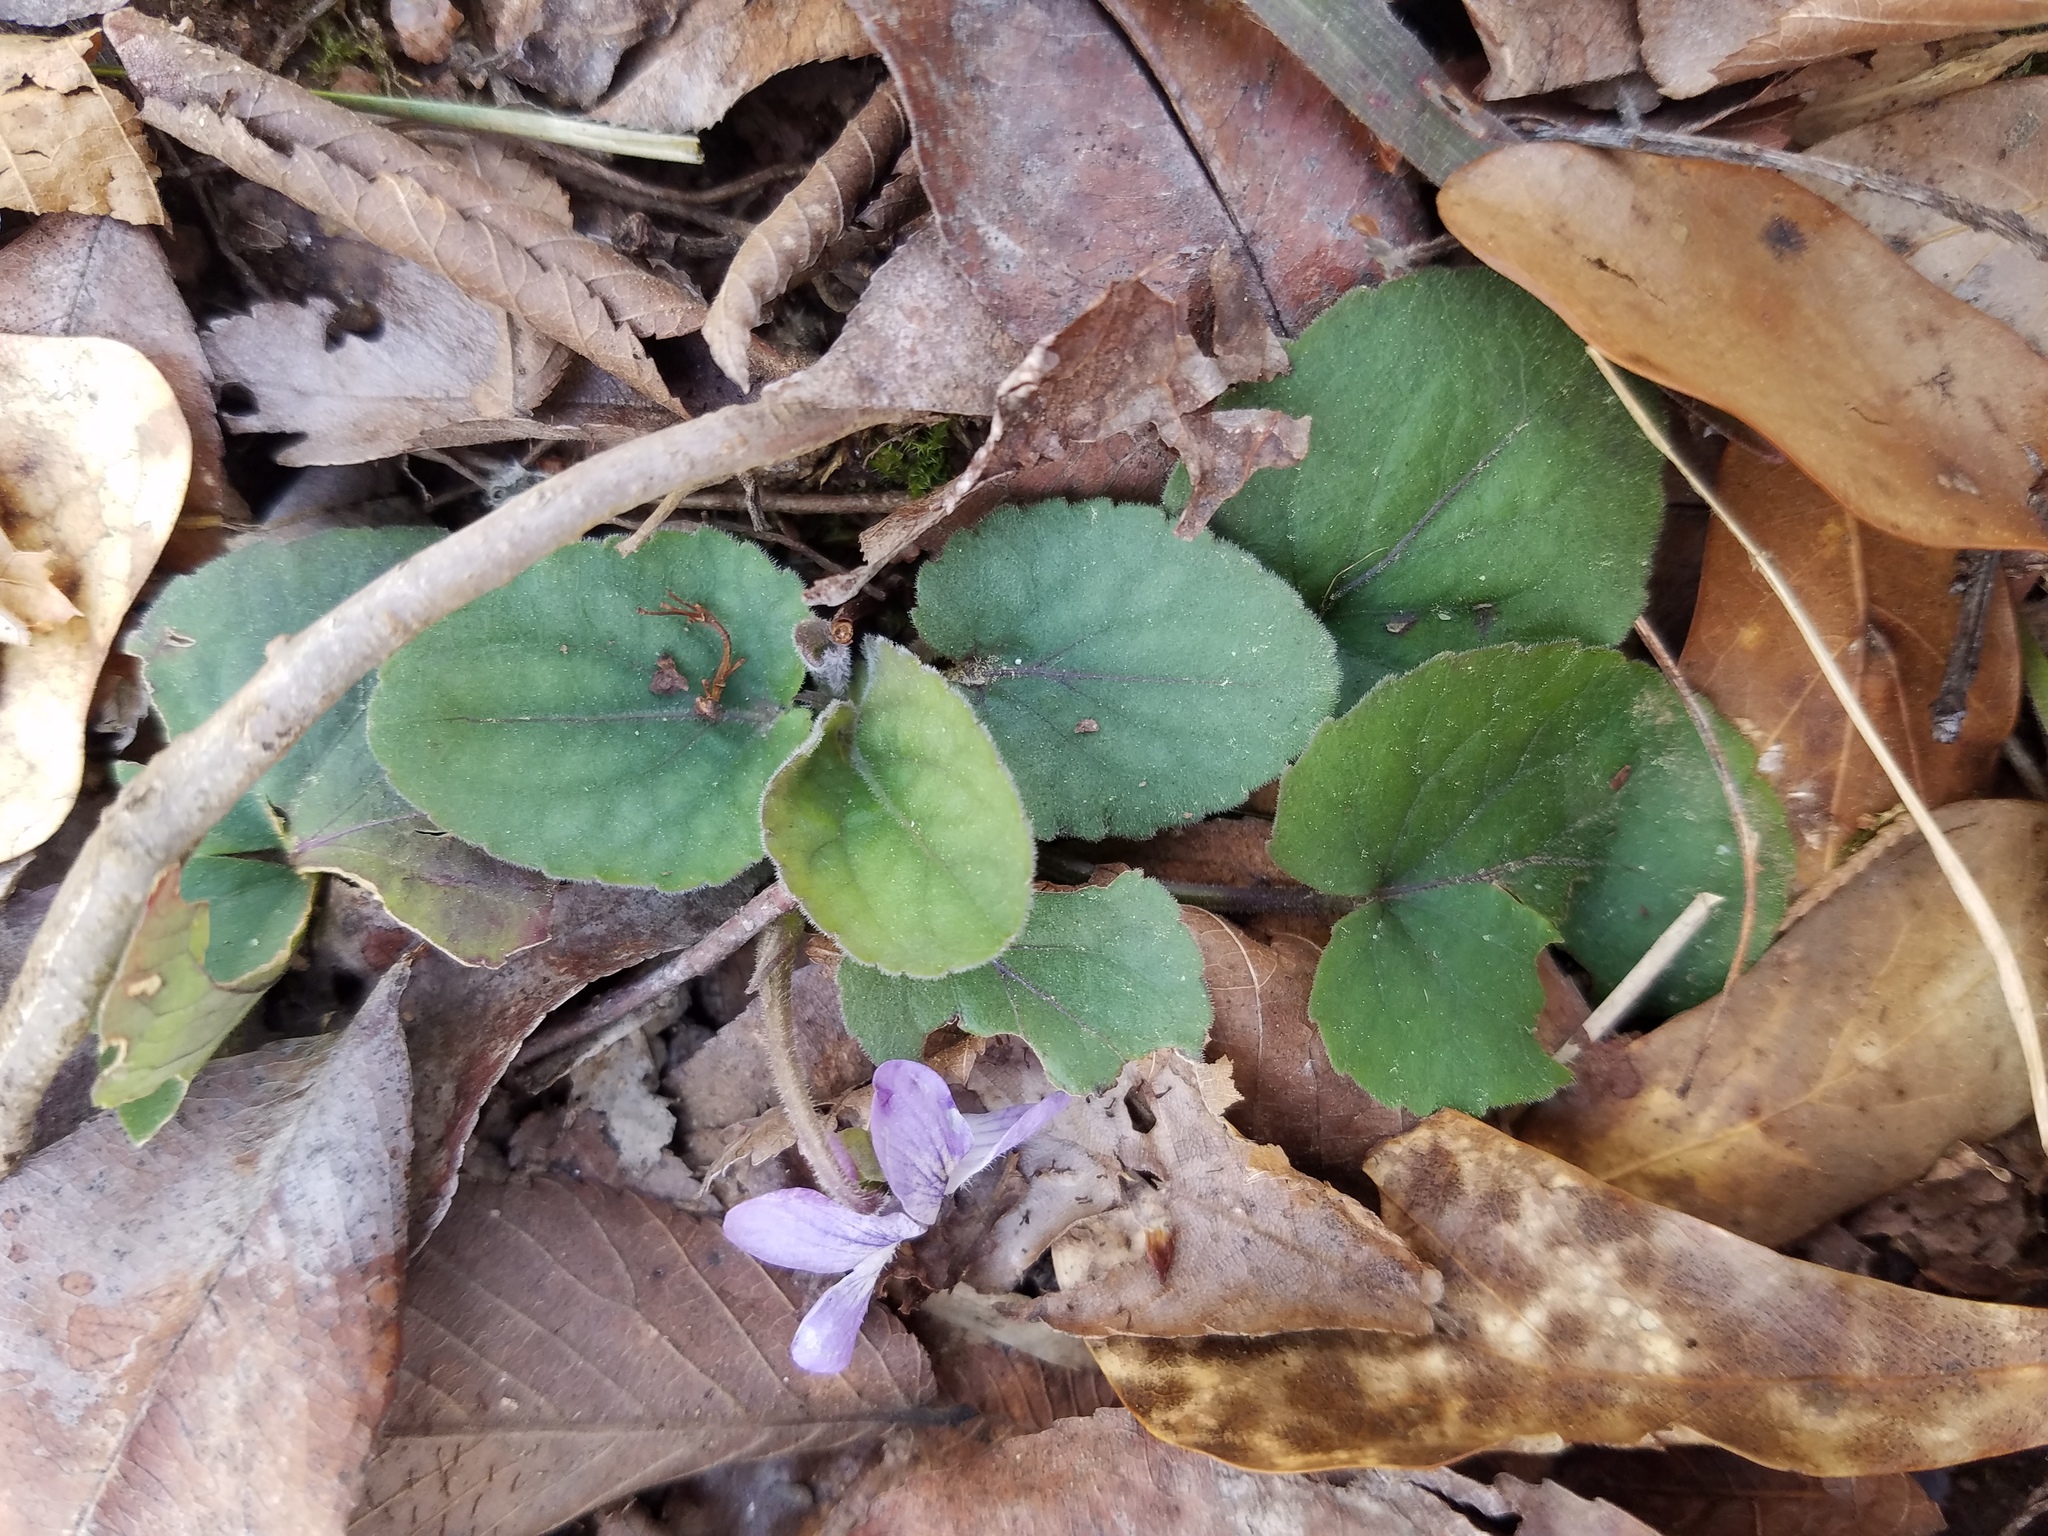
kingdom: Plantae
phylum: Tracheophyta
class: Magnoliopsida
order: Malpighiales
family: Violaceae
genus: Viola
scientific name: Viola villosa
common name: Carolina violet
